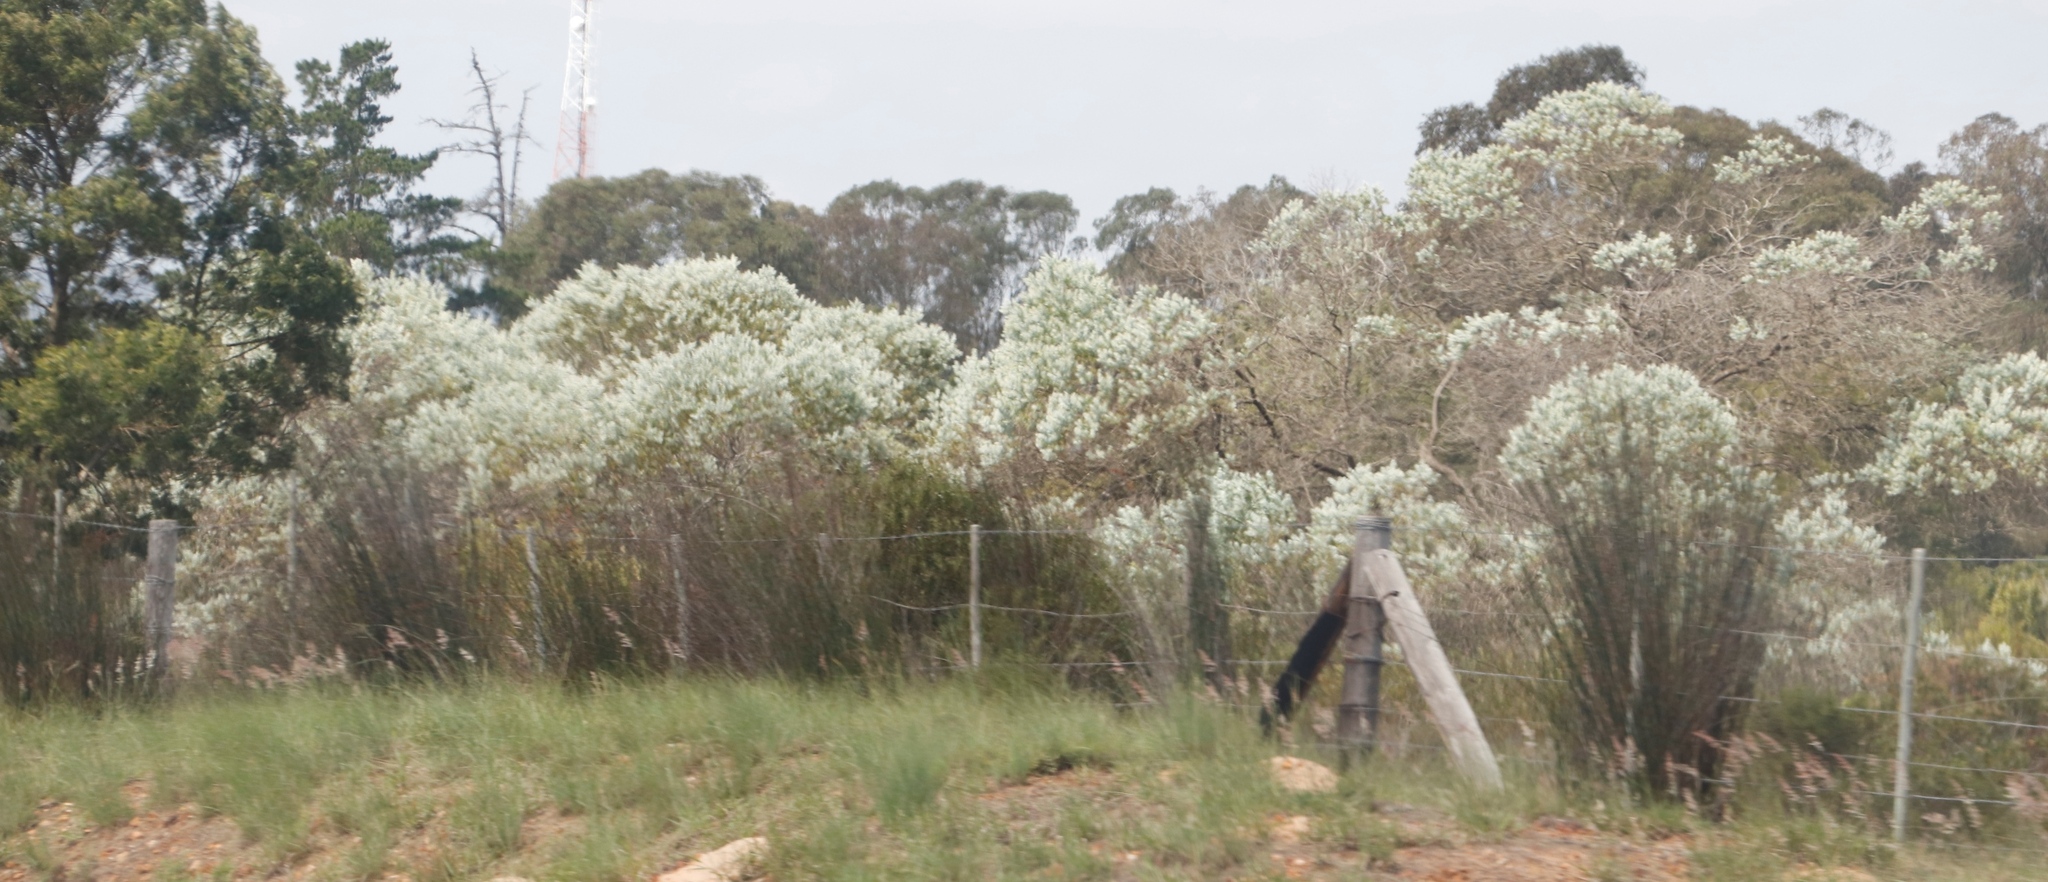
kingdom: Plantae
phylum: Tracheophyta
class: Magnoliopsida
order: Fabales
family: Fabaceae
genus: Acacia
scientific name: Acacia podalyriifolia
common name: Pearl wattle
